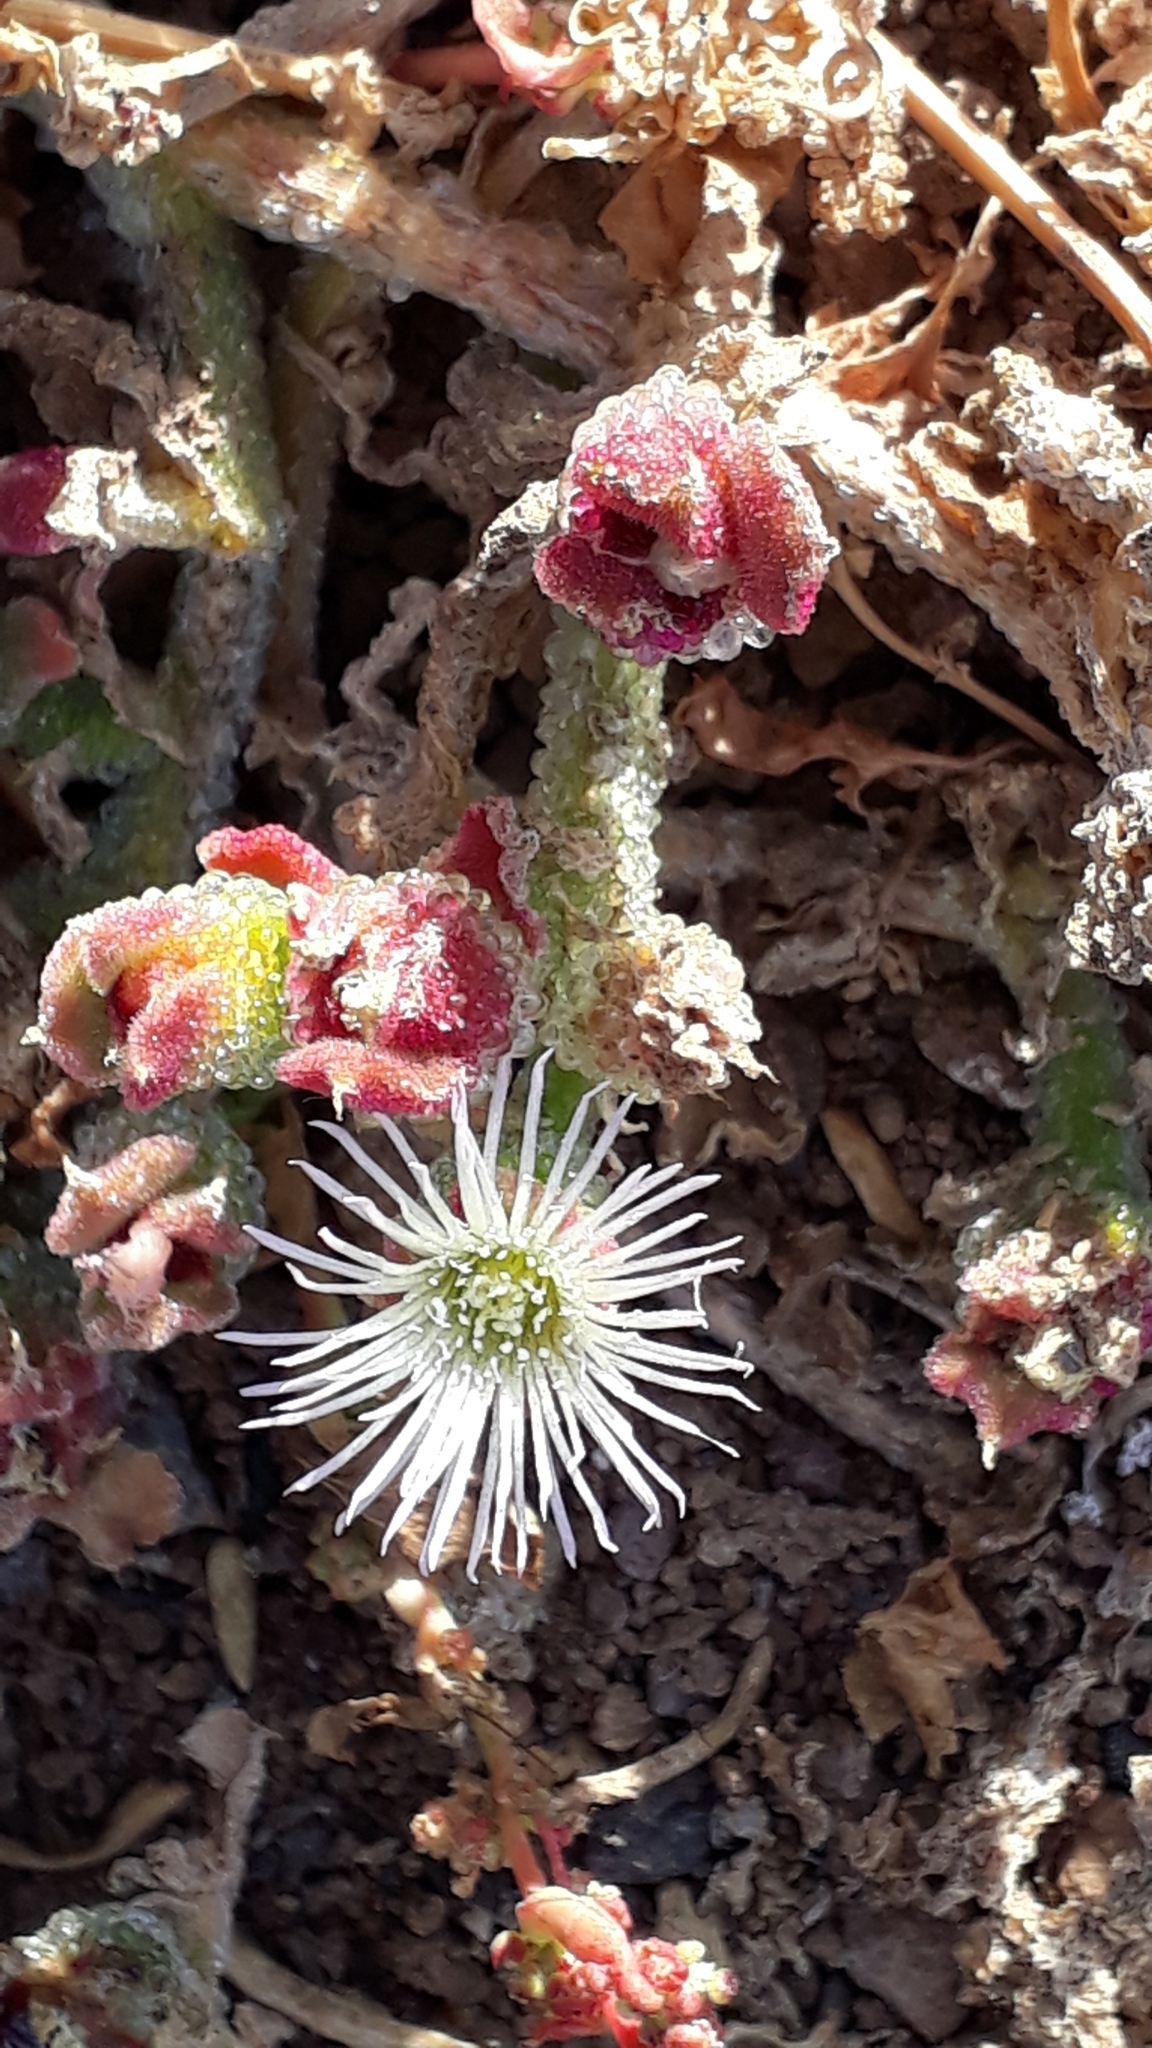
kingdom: Plantae
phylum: Tracheophyta
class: Magnoliopsida
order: Caryophyllales
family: Aizoaceae
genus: Mesembryanthemum
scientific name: Mesembryanthemum crystallinum
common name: Common iceplant
